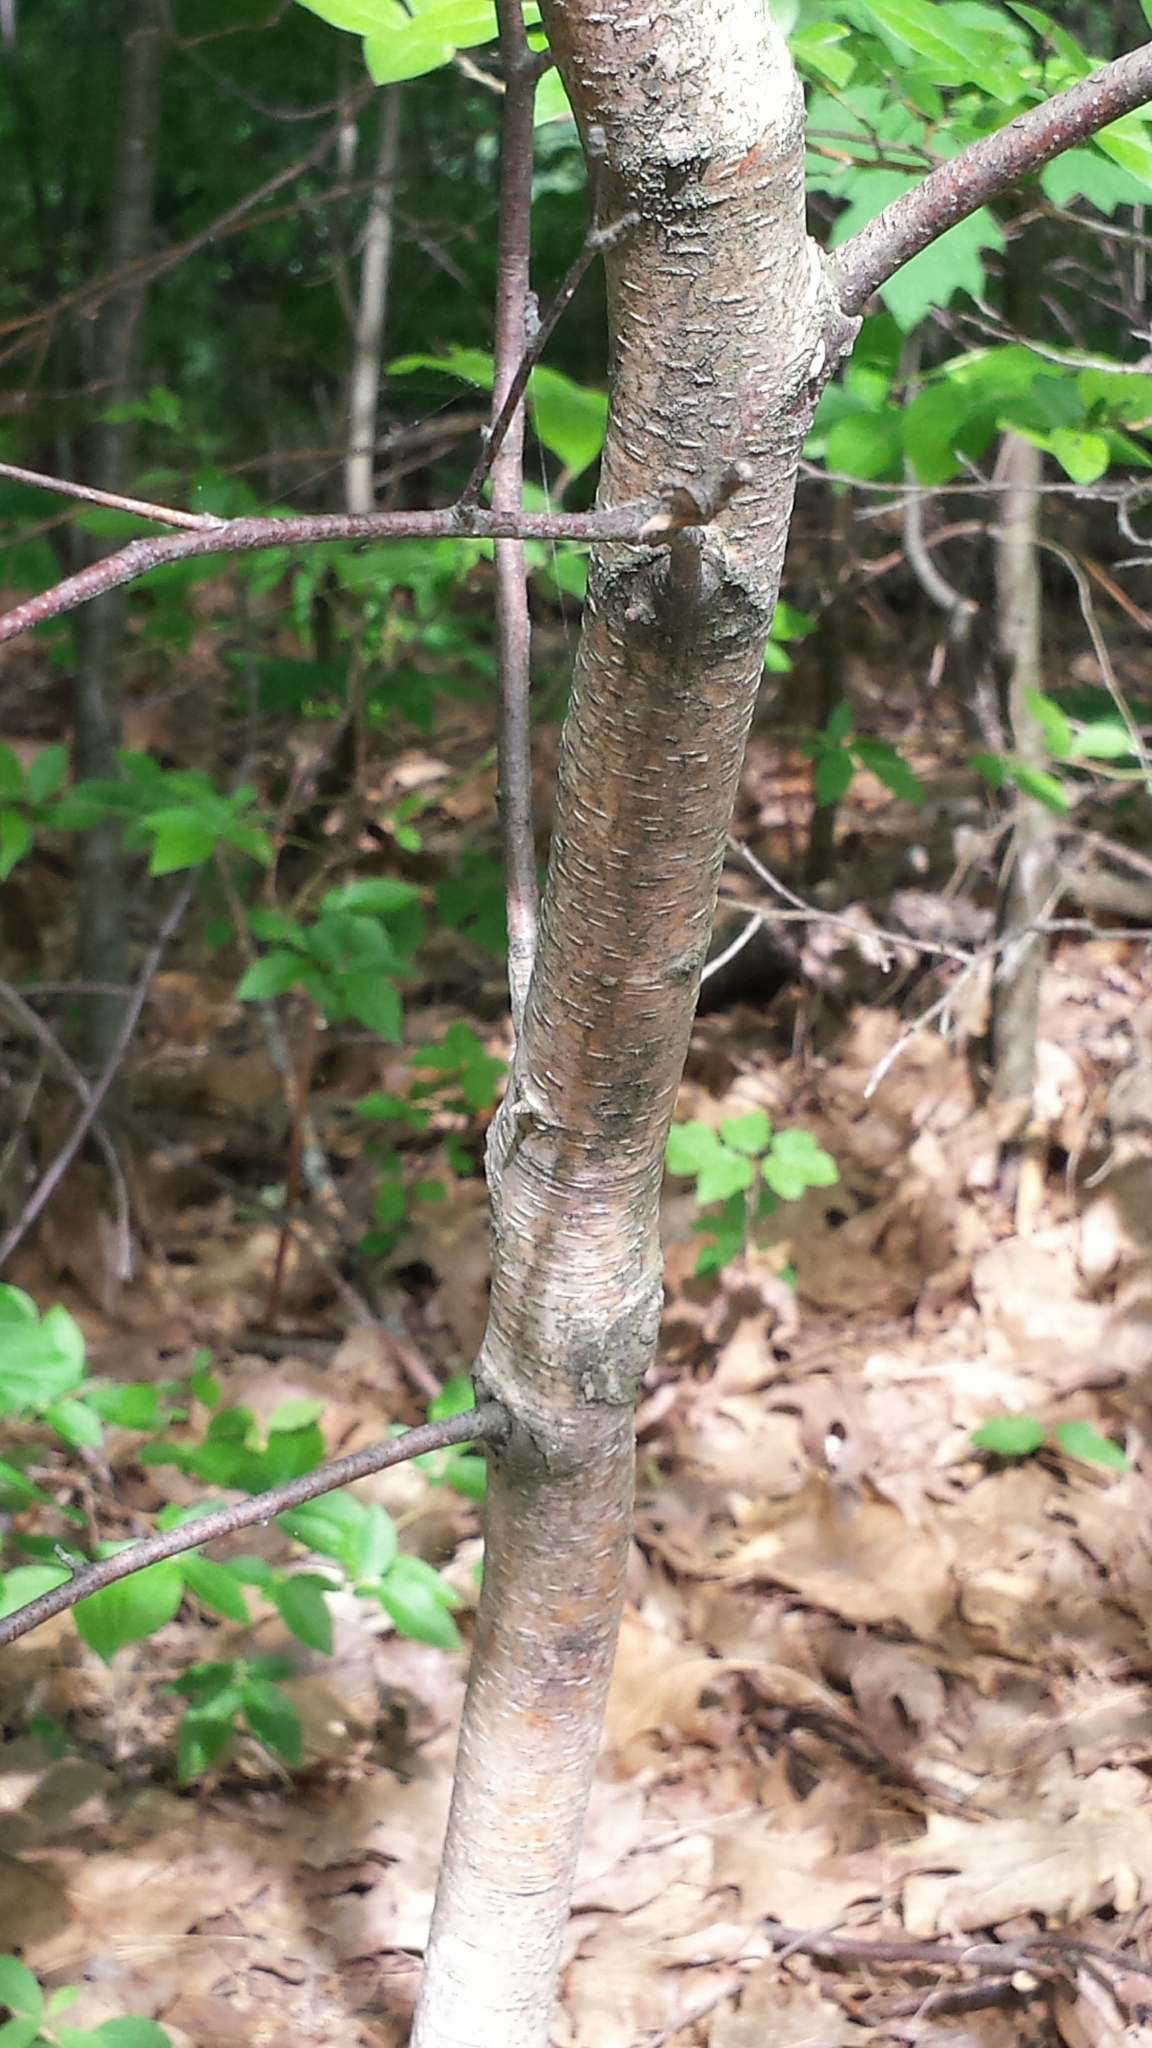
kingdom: Plantae
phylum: Tracheophyta
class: Magnoliopsida
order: Fagales
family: Betulaceae
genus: Betula
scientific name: Betula populifolia
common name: Fire birch
